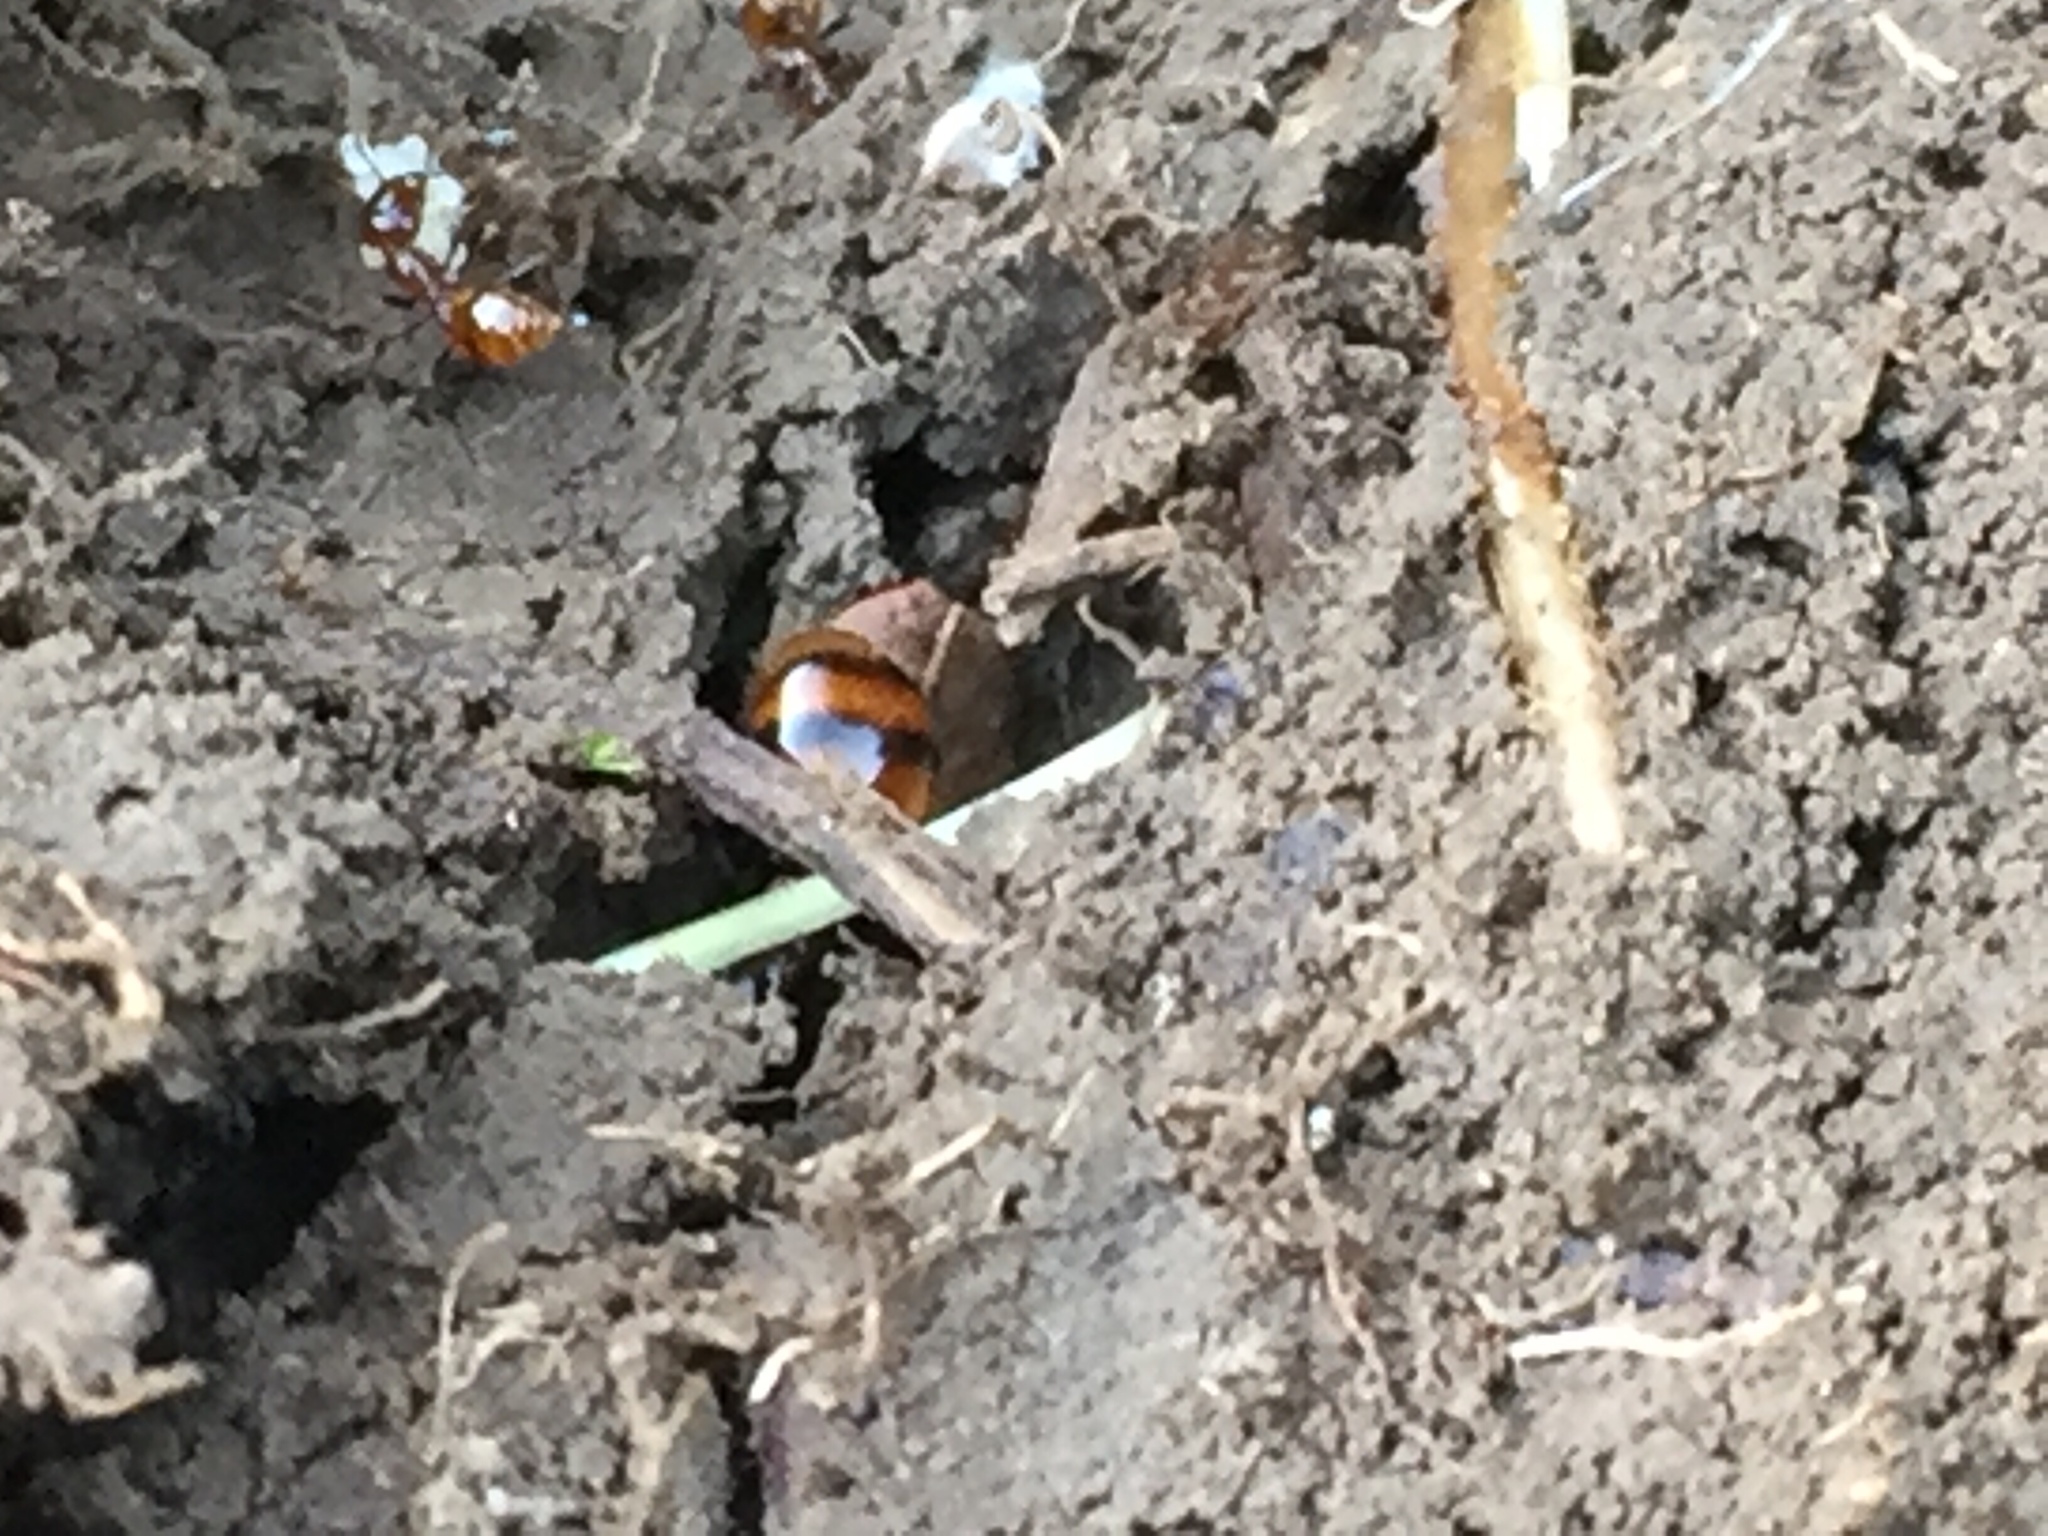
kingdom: Animalia
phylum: Arthropoda
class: Insecta
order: Hymenoptera
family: Formicidae
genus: Monomorium
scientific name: Monomorium antarcticum
